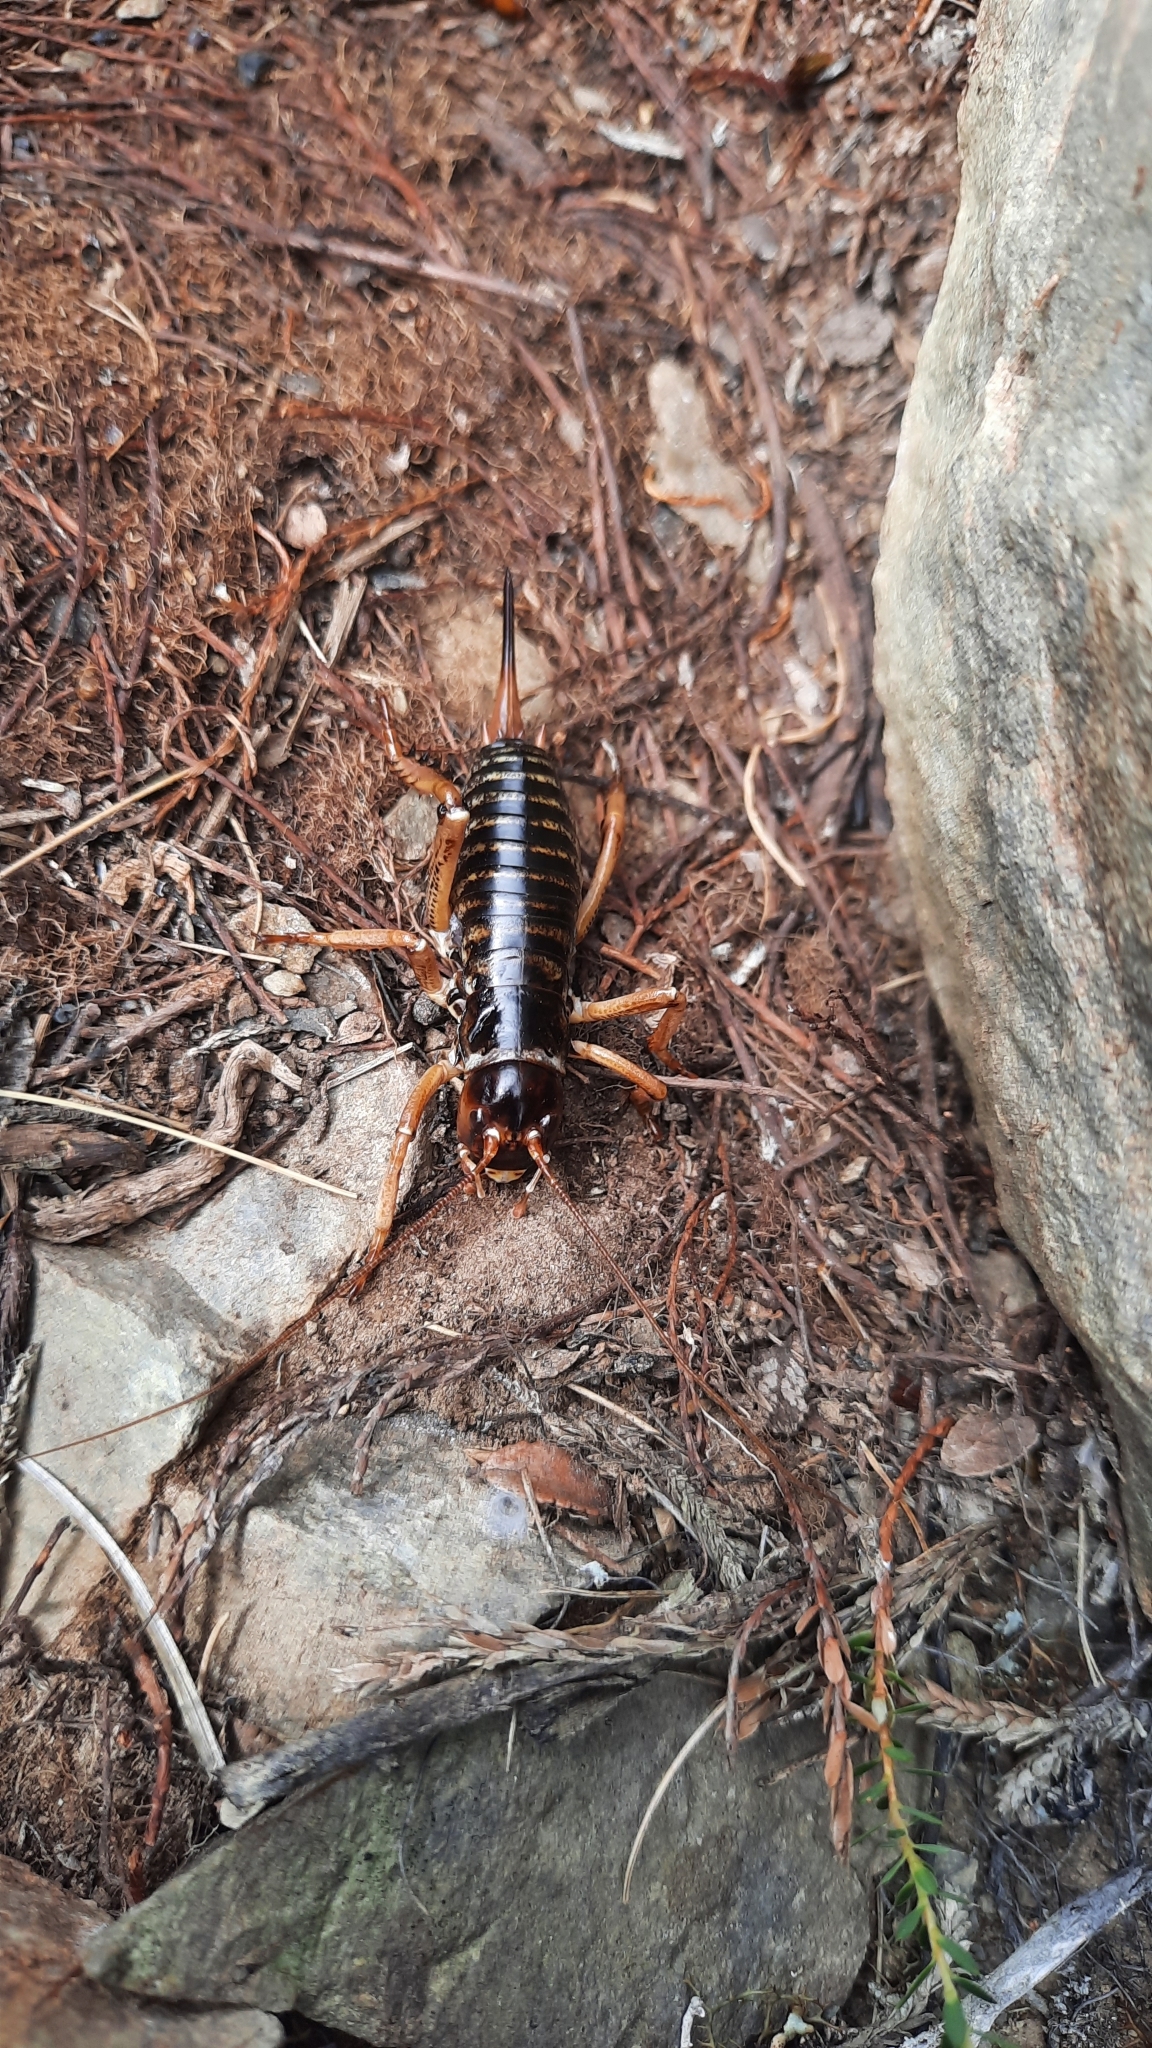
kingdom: Animalia
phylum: Arthropoda
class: Insecta
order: Orthoptera
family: Anostostomatidae
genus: Hemideina
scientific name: Hemideina maori
